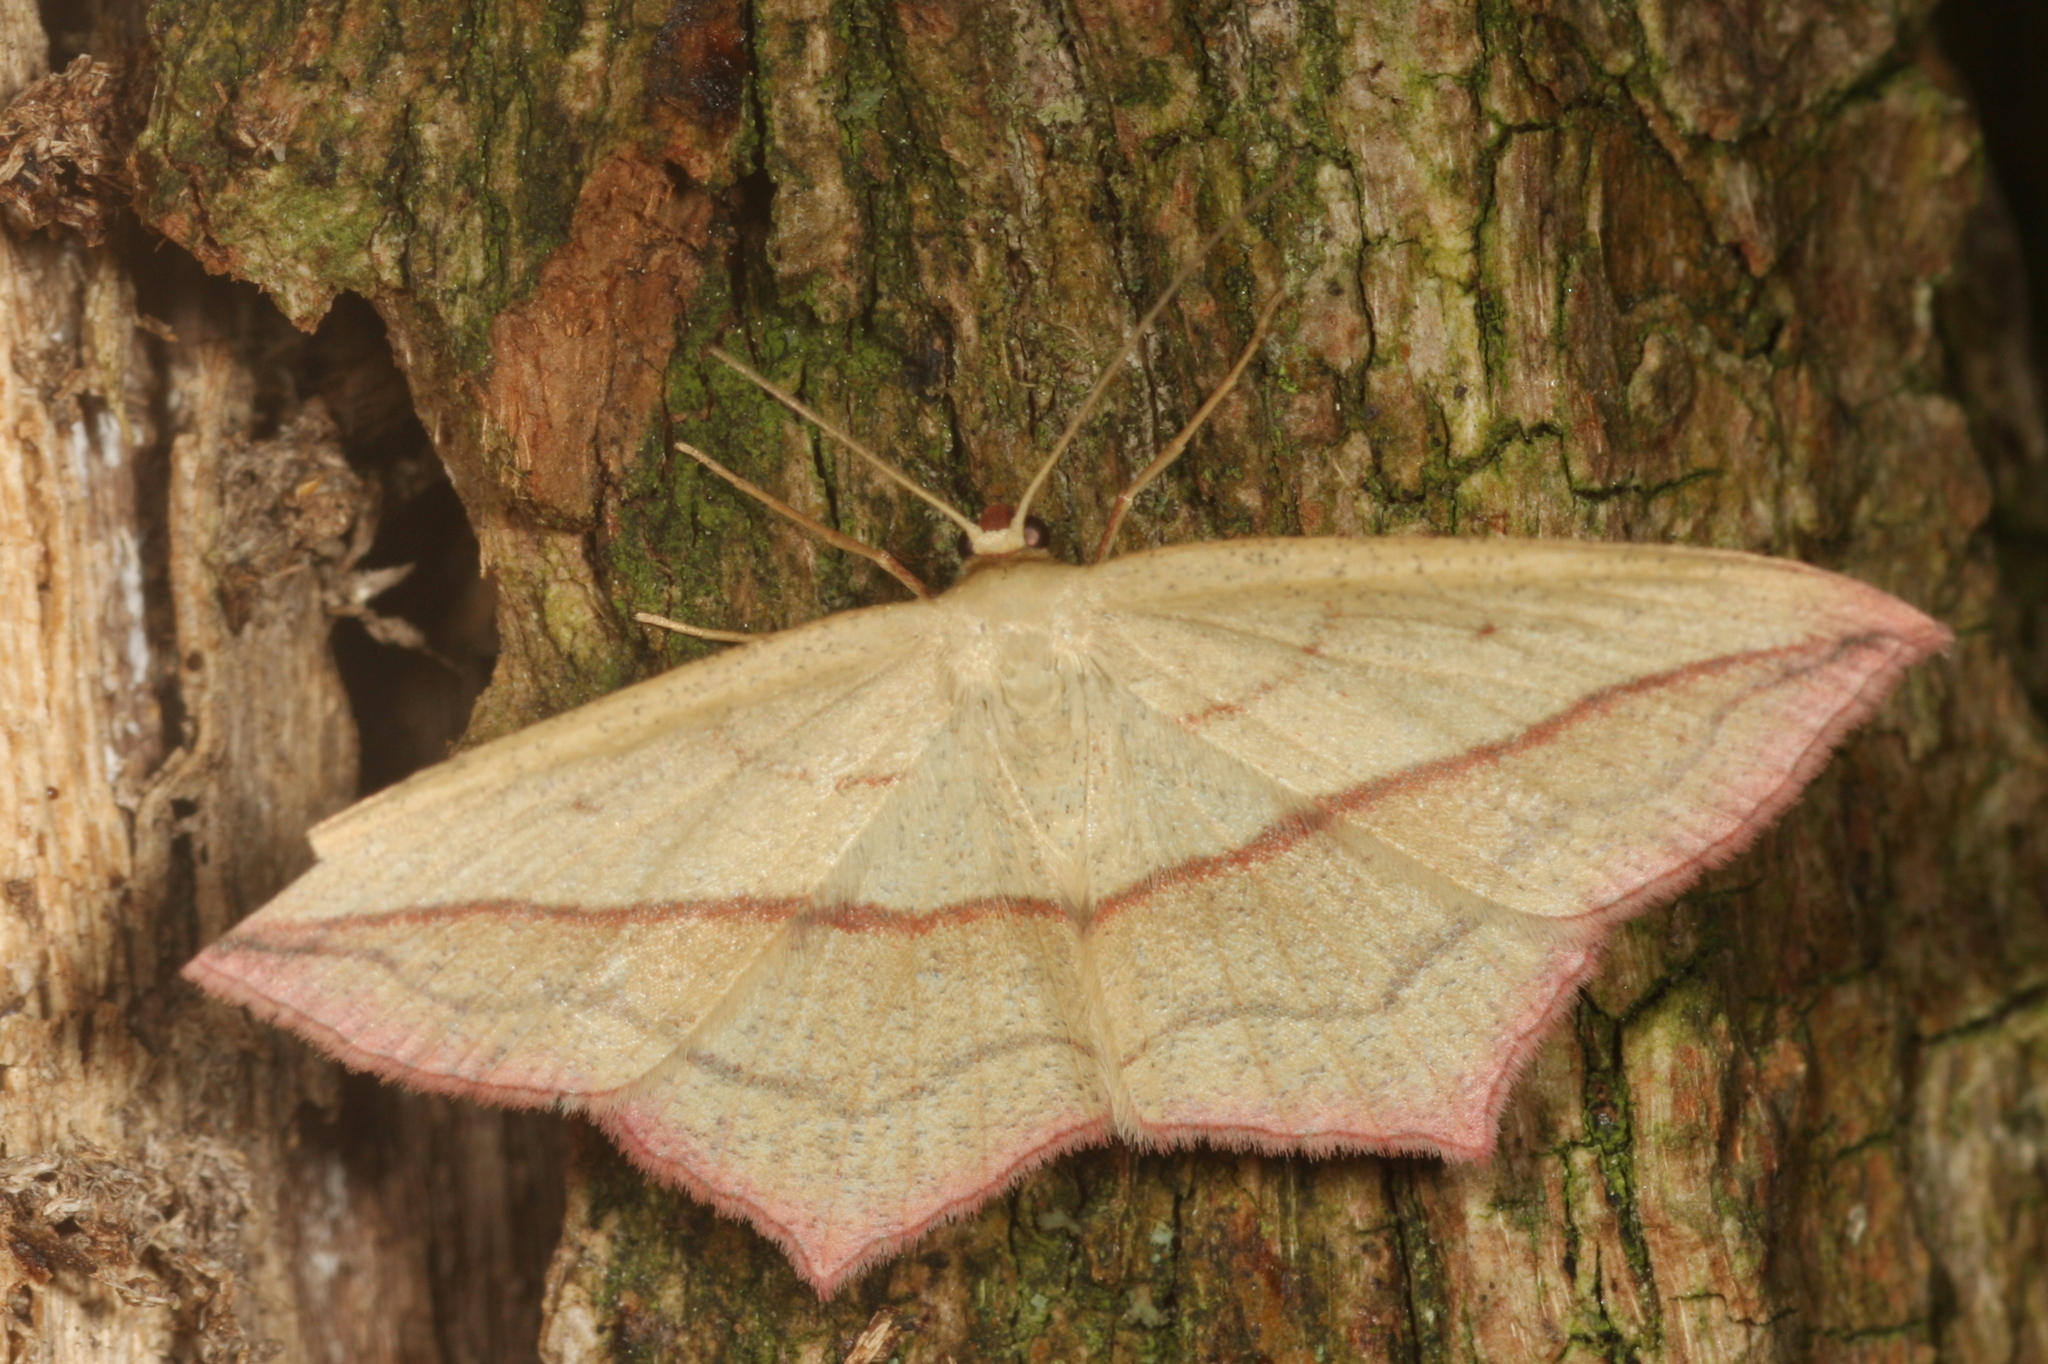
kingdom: Animalia
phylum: Arthropoda
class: Insecta
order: Lepidoptera
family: Geometridae
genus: Timandra
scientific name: Timandra comae
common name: Blood-vein
